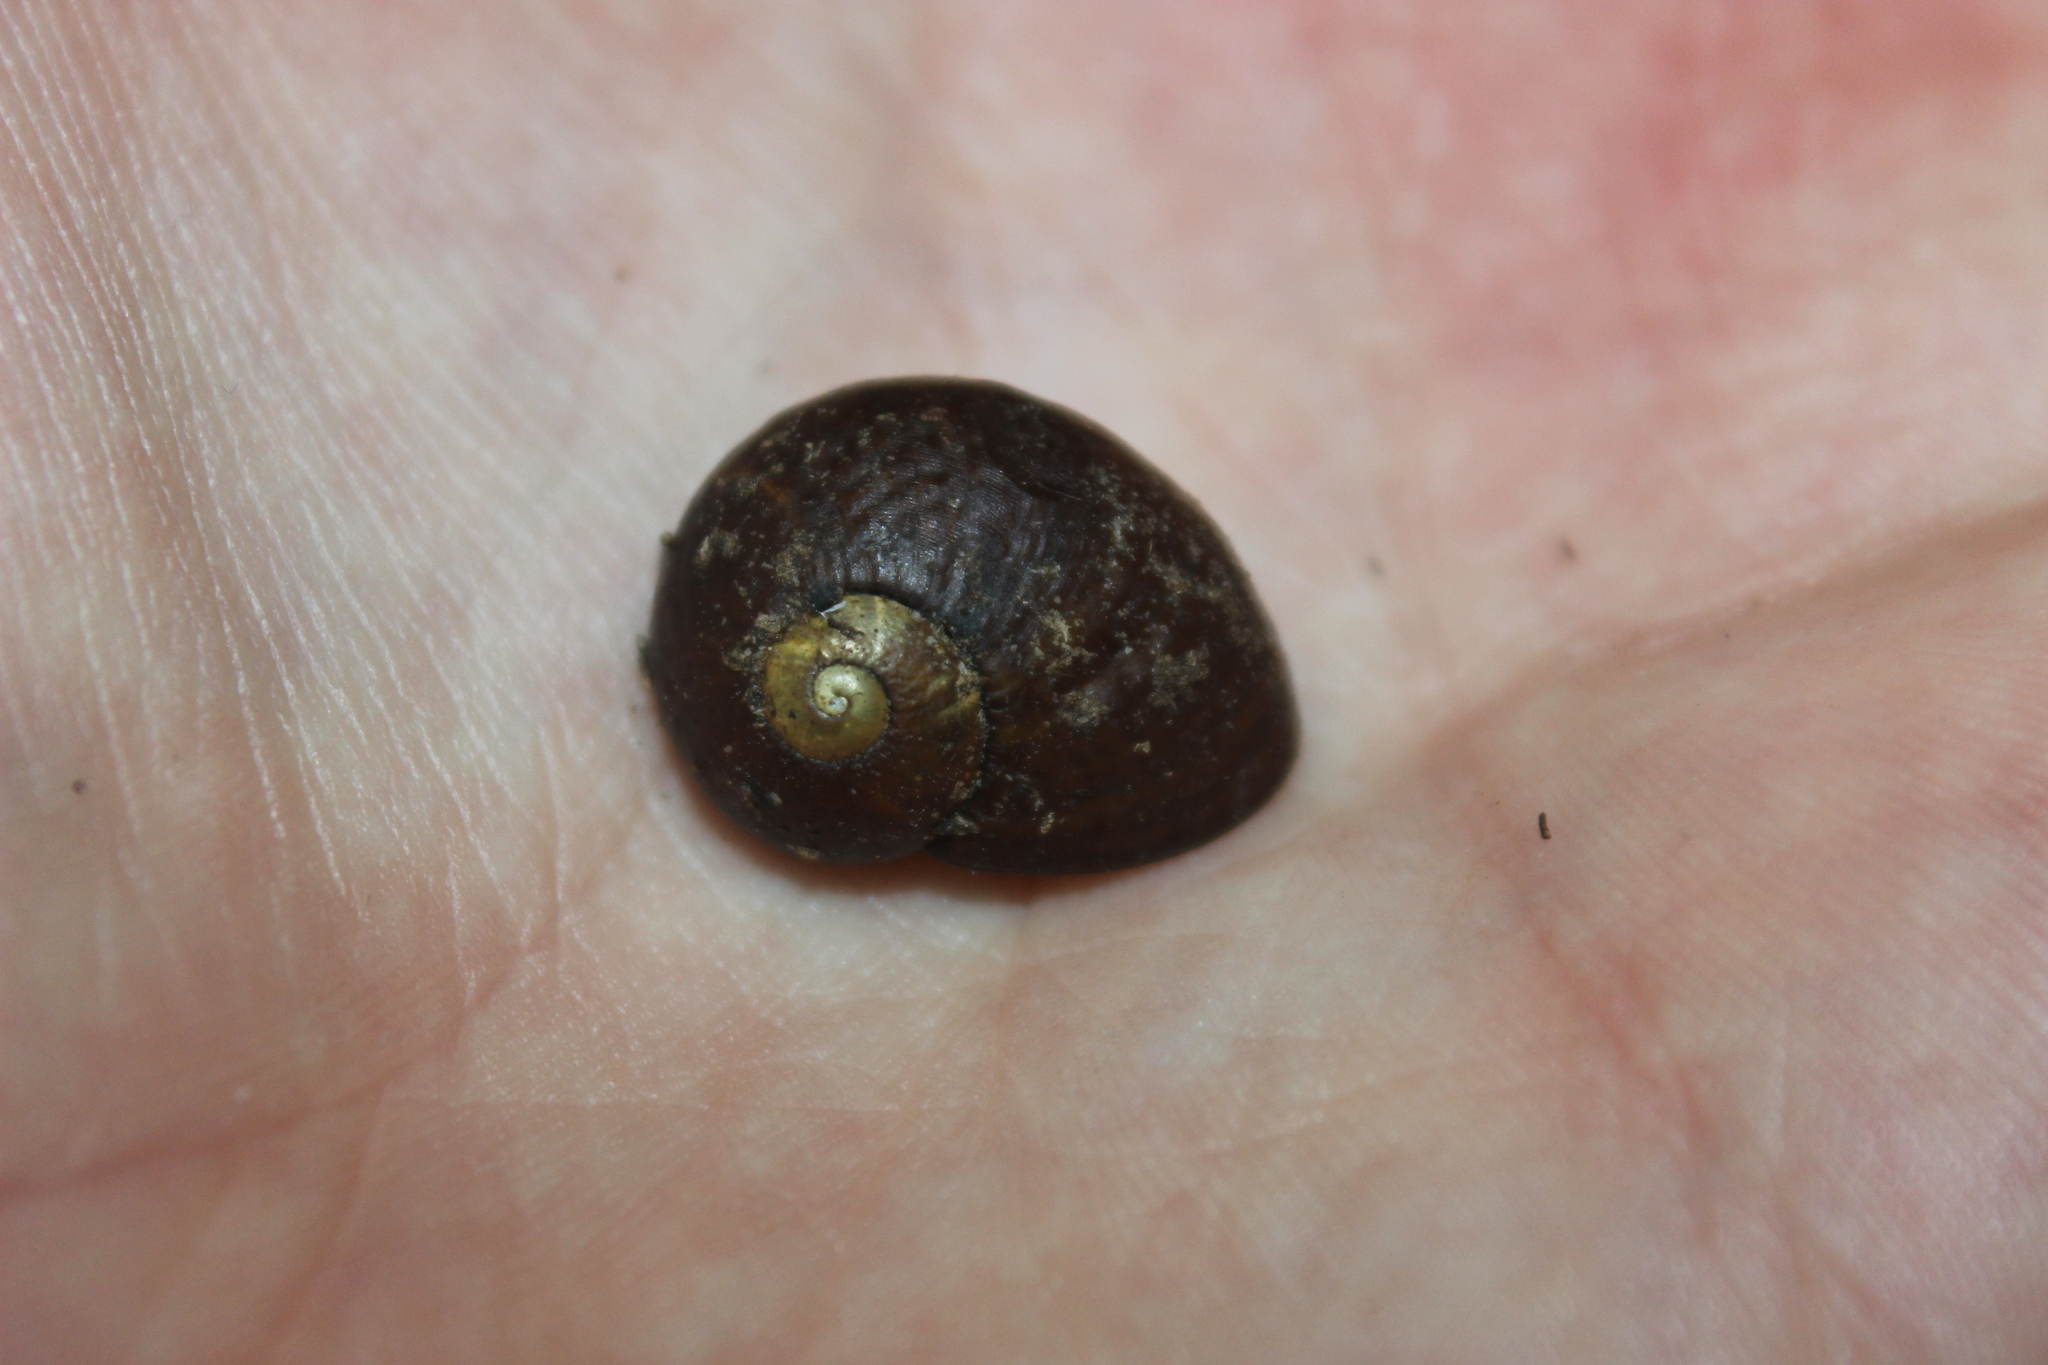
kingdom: Animalia
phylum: Mollusca
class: Gastropoda
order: Stylommatophora
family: Rhytididae
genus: Wainuia
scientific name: Wainuia urnula
